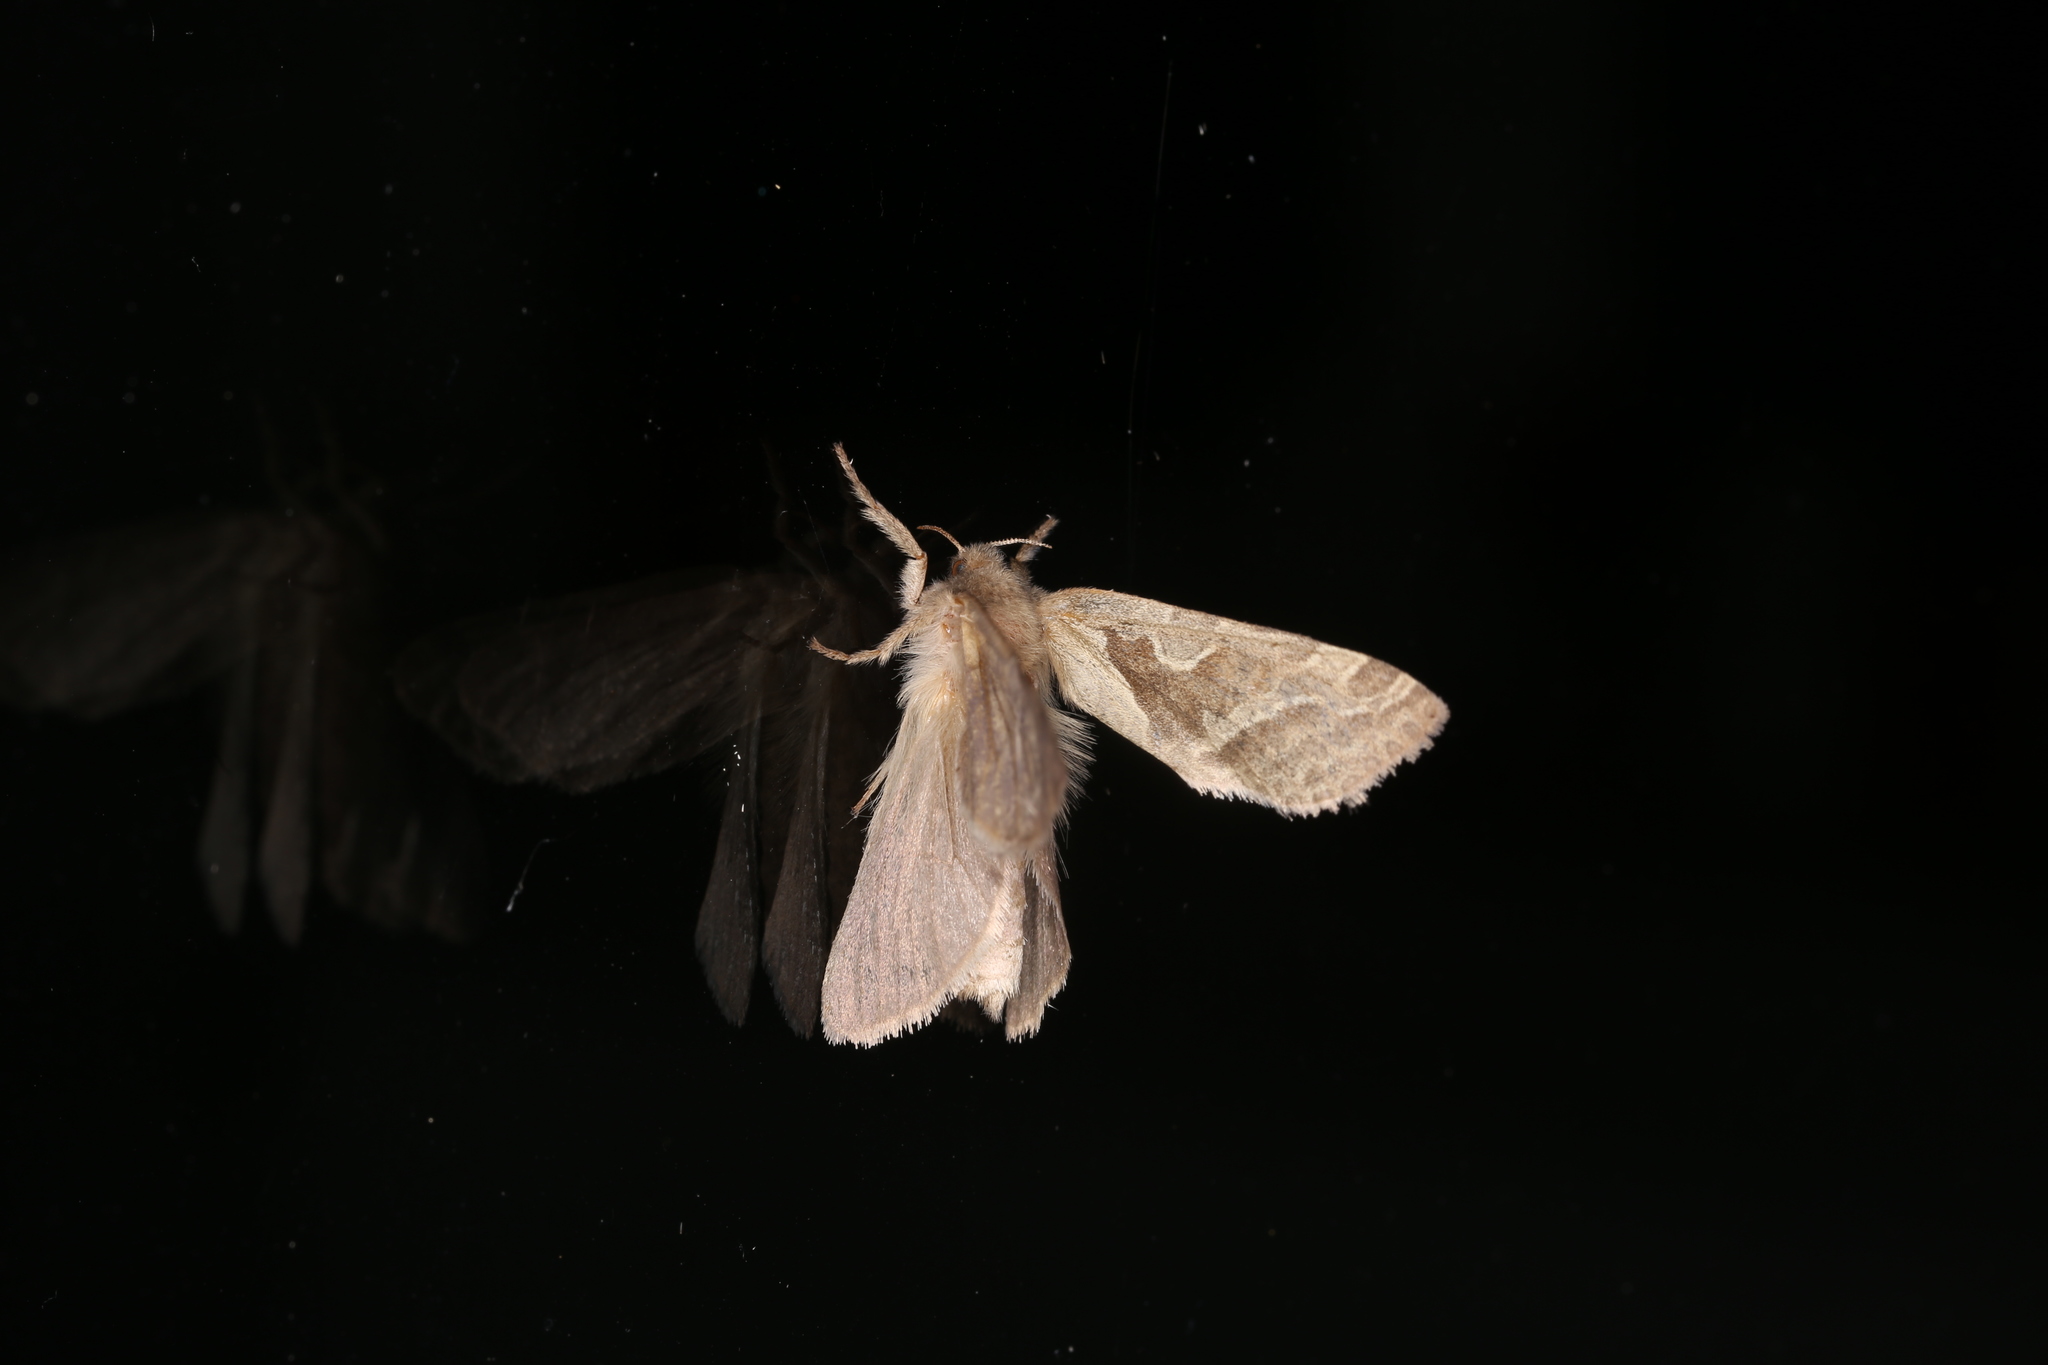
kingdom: Animalia
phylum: Arthropoda
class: Insecta
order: Lepidoptera
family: Hepialidae
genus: Triodia
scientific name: Triodia sylvina
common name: Orange swift
